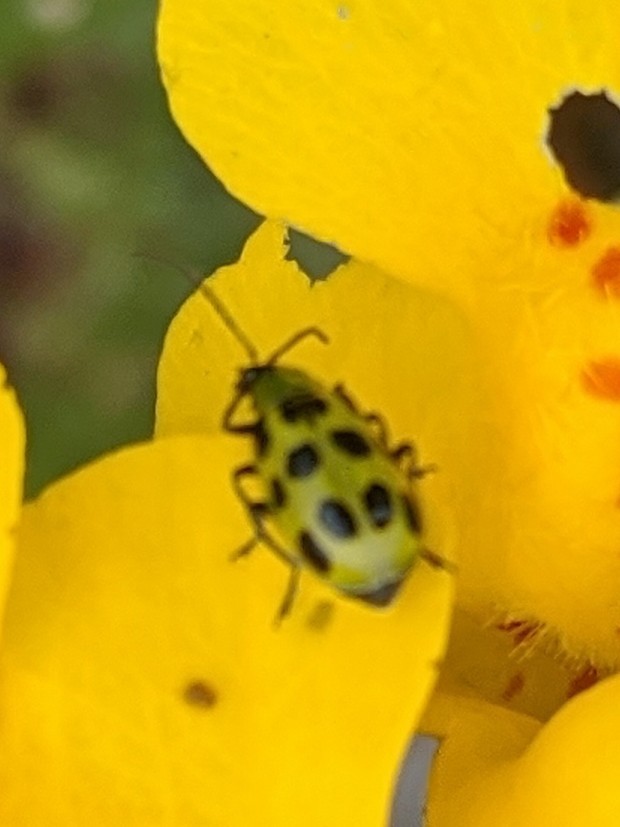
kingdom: Animalia
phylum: Arthropoda
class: Insecta
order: Coleoptera
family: Chrysomelidae
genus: Diabrotica
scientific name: Diabrotica undecimpunctata
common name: Spotted cucumber beetle
